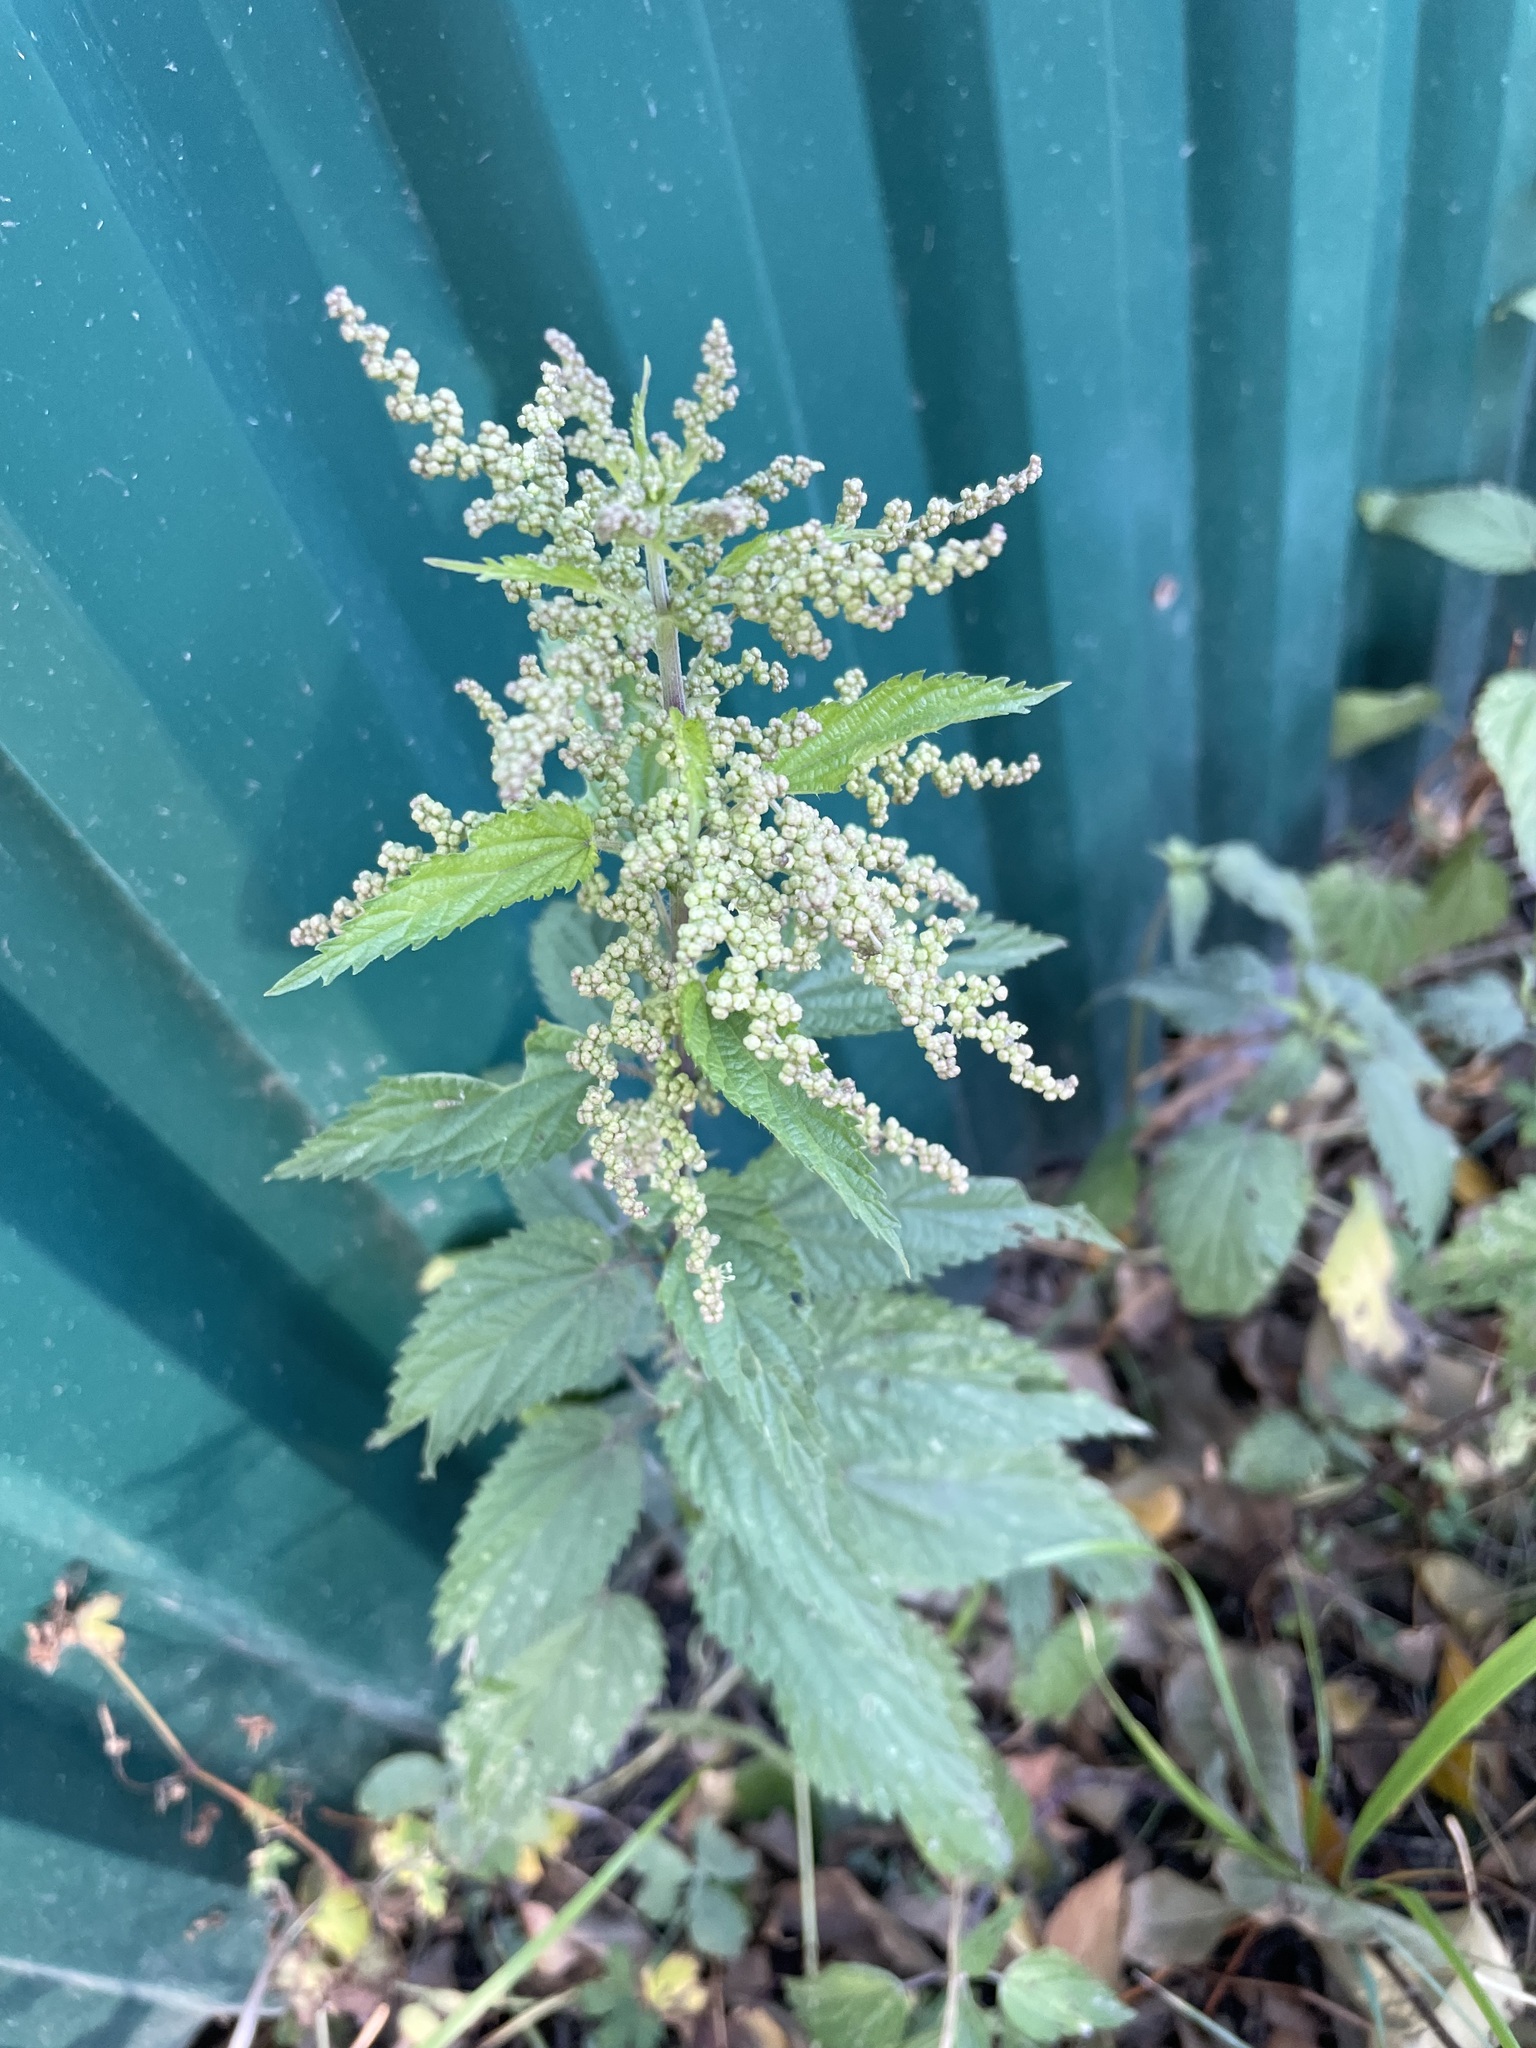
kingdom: Plantae
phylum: Tracheophyta
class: Magnoliopsida
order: Rosales
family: Urticaceae
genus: Urtica
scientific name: Urtica dioica
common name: Common nettle
